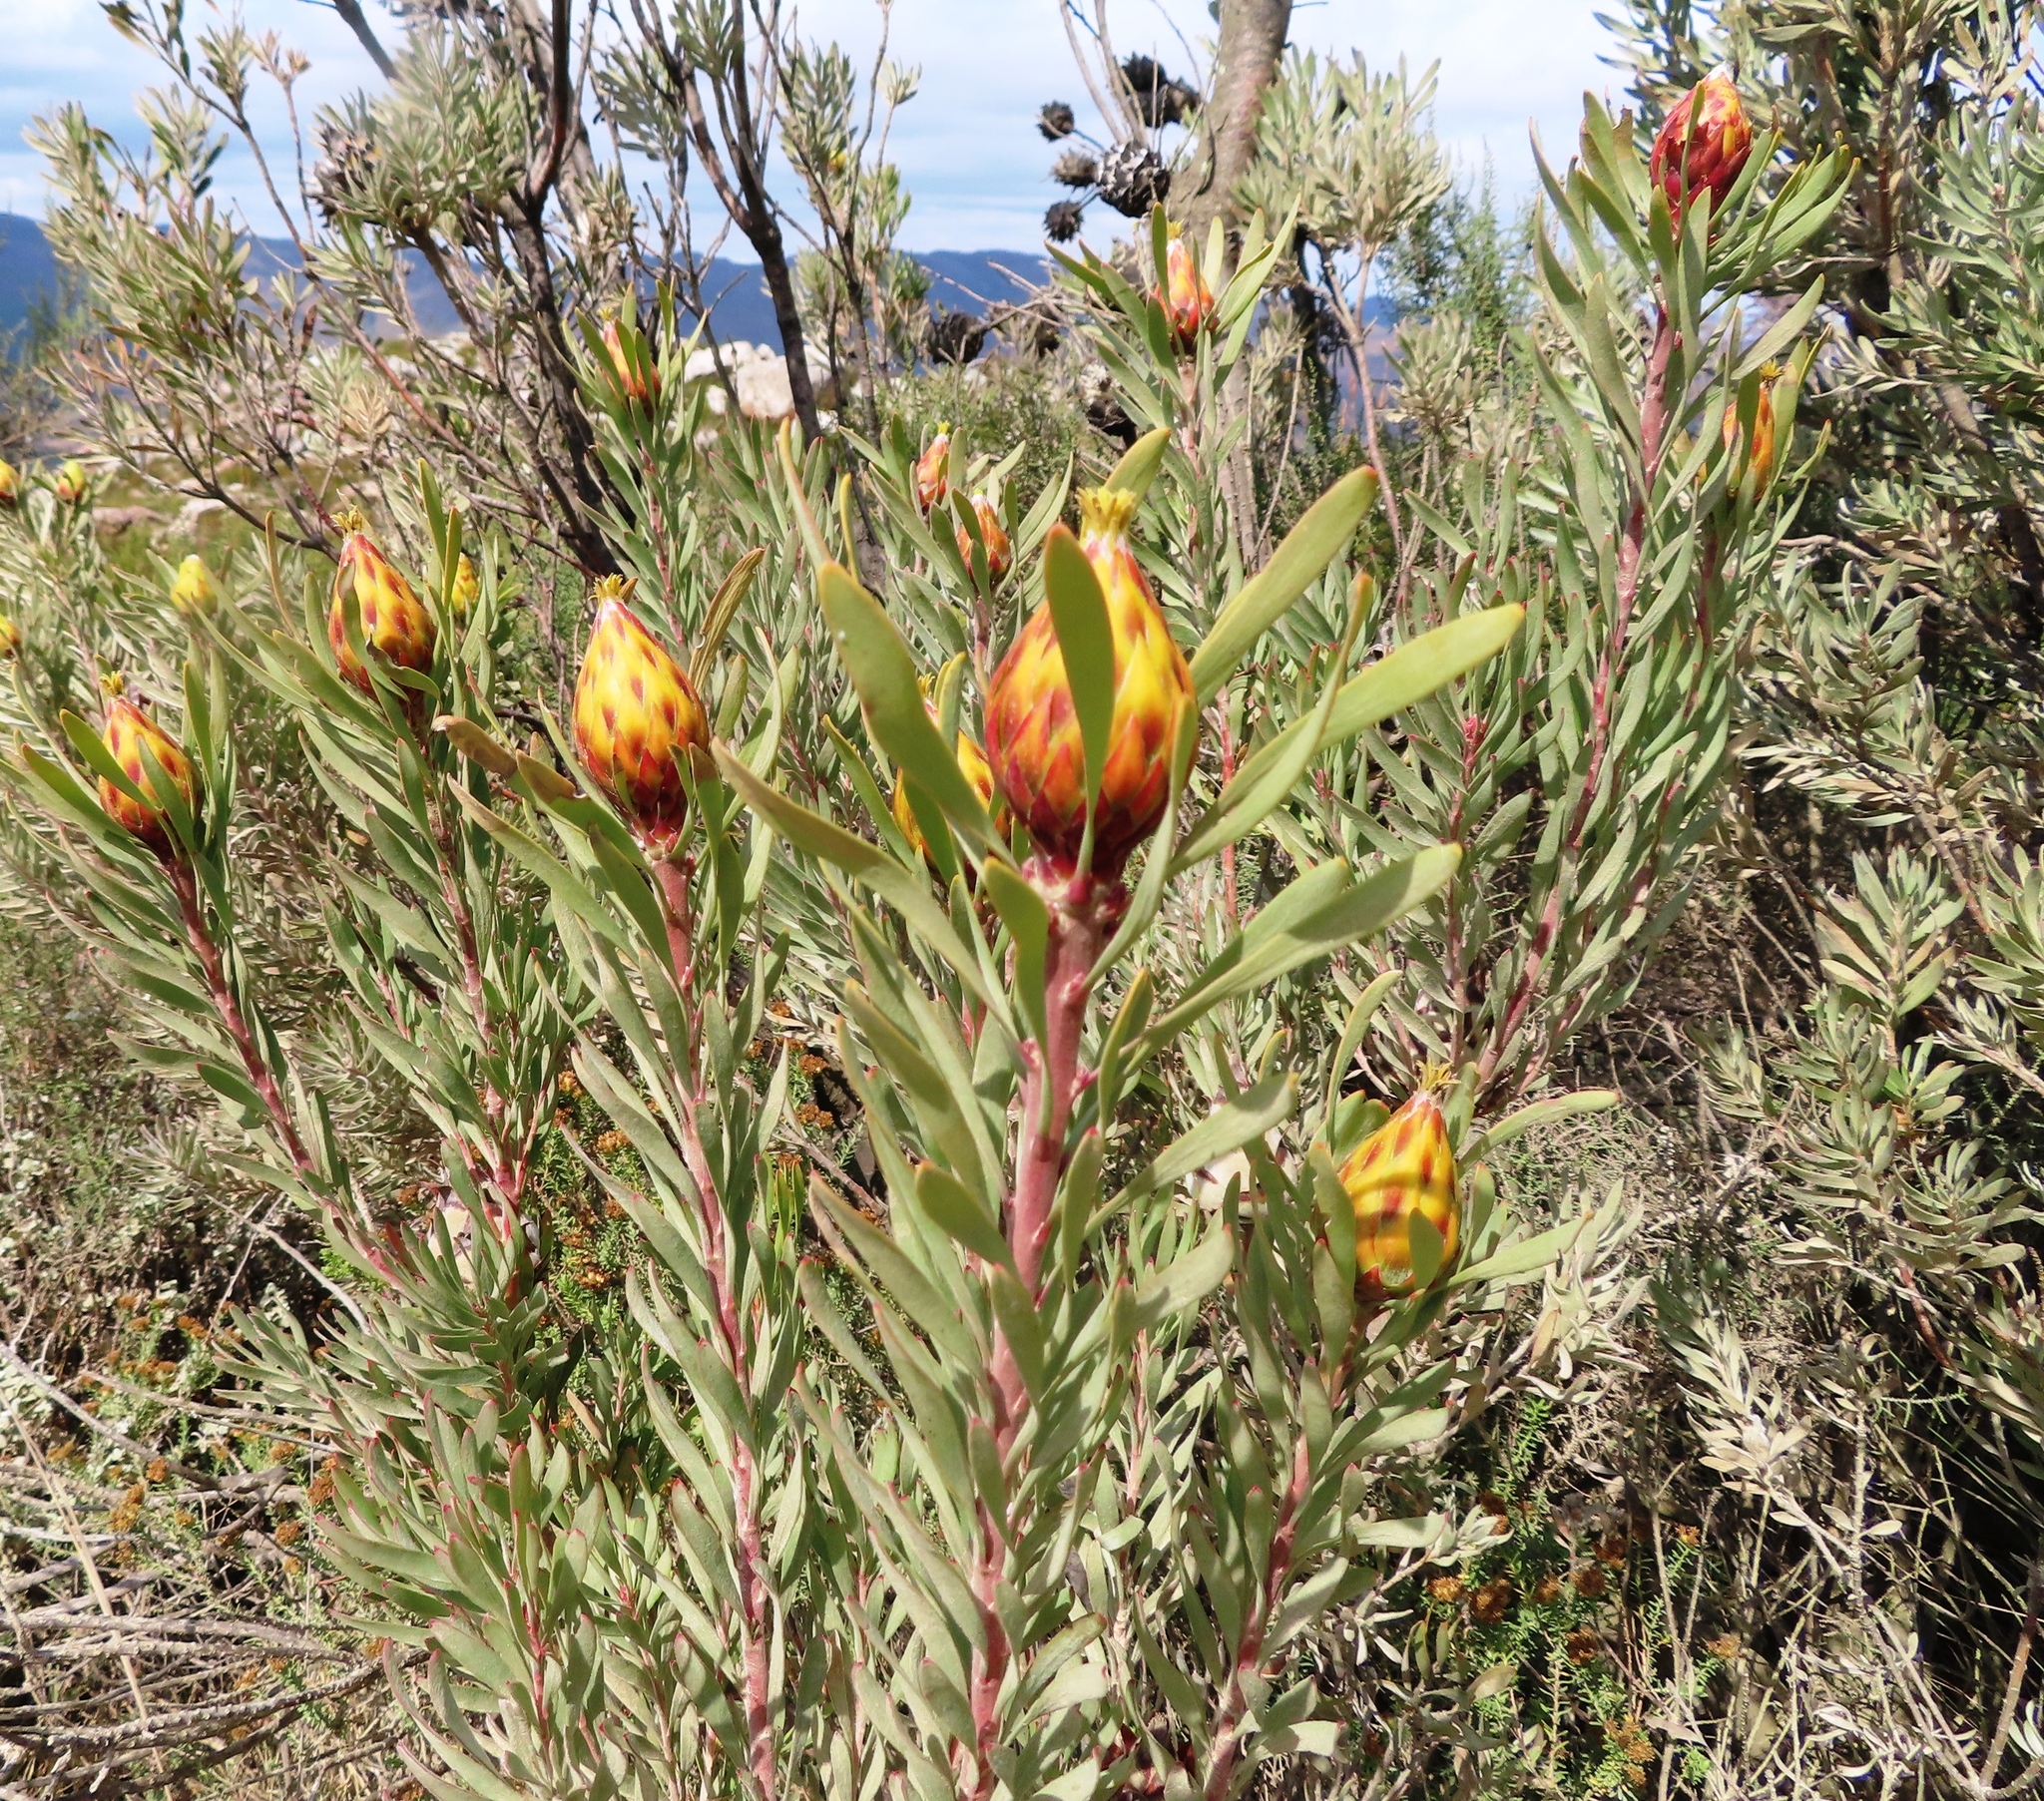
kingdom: Plantae
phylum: Tracheophyta
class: Magnoliopsida
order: Proteales
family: Proteaceae
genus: Leucadendron
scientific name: Leucadendron rubrum
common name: Spinning top
